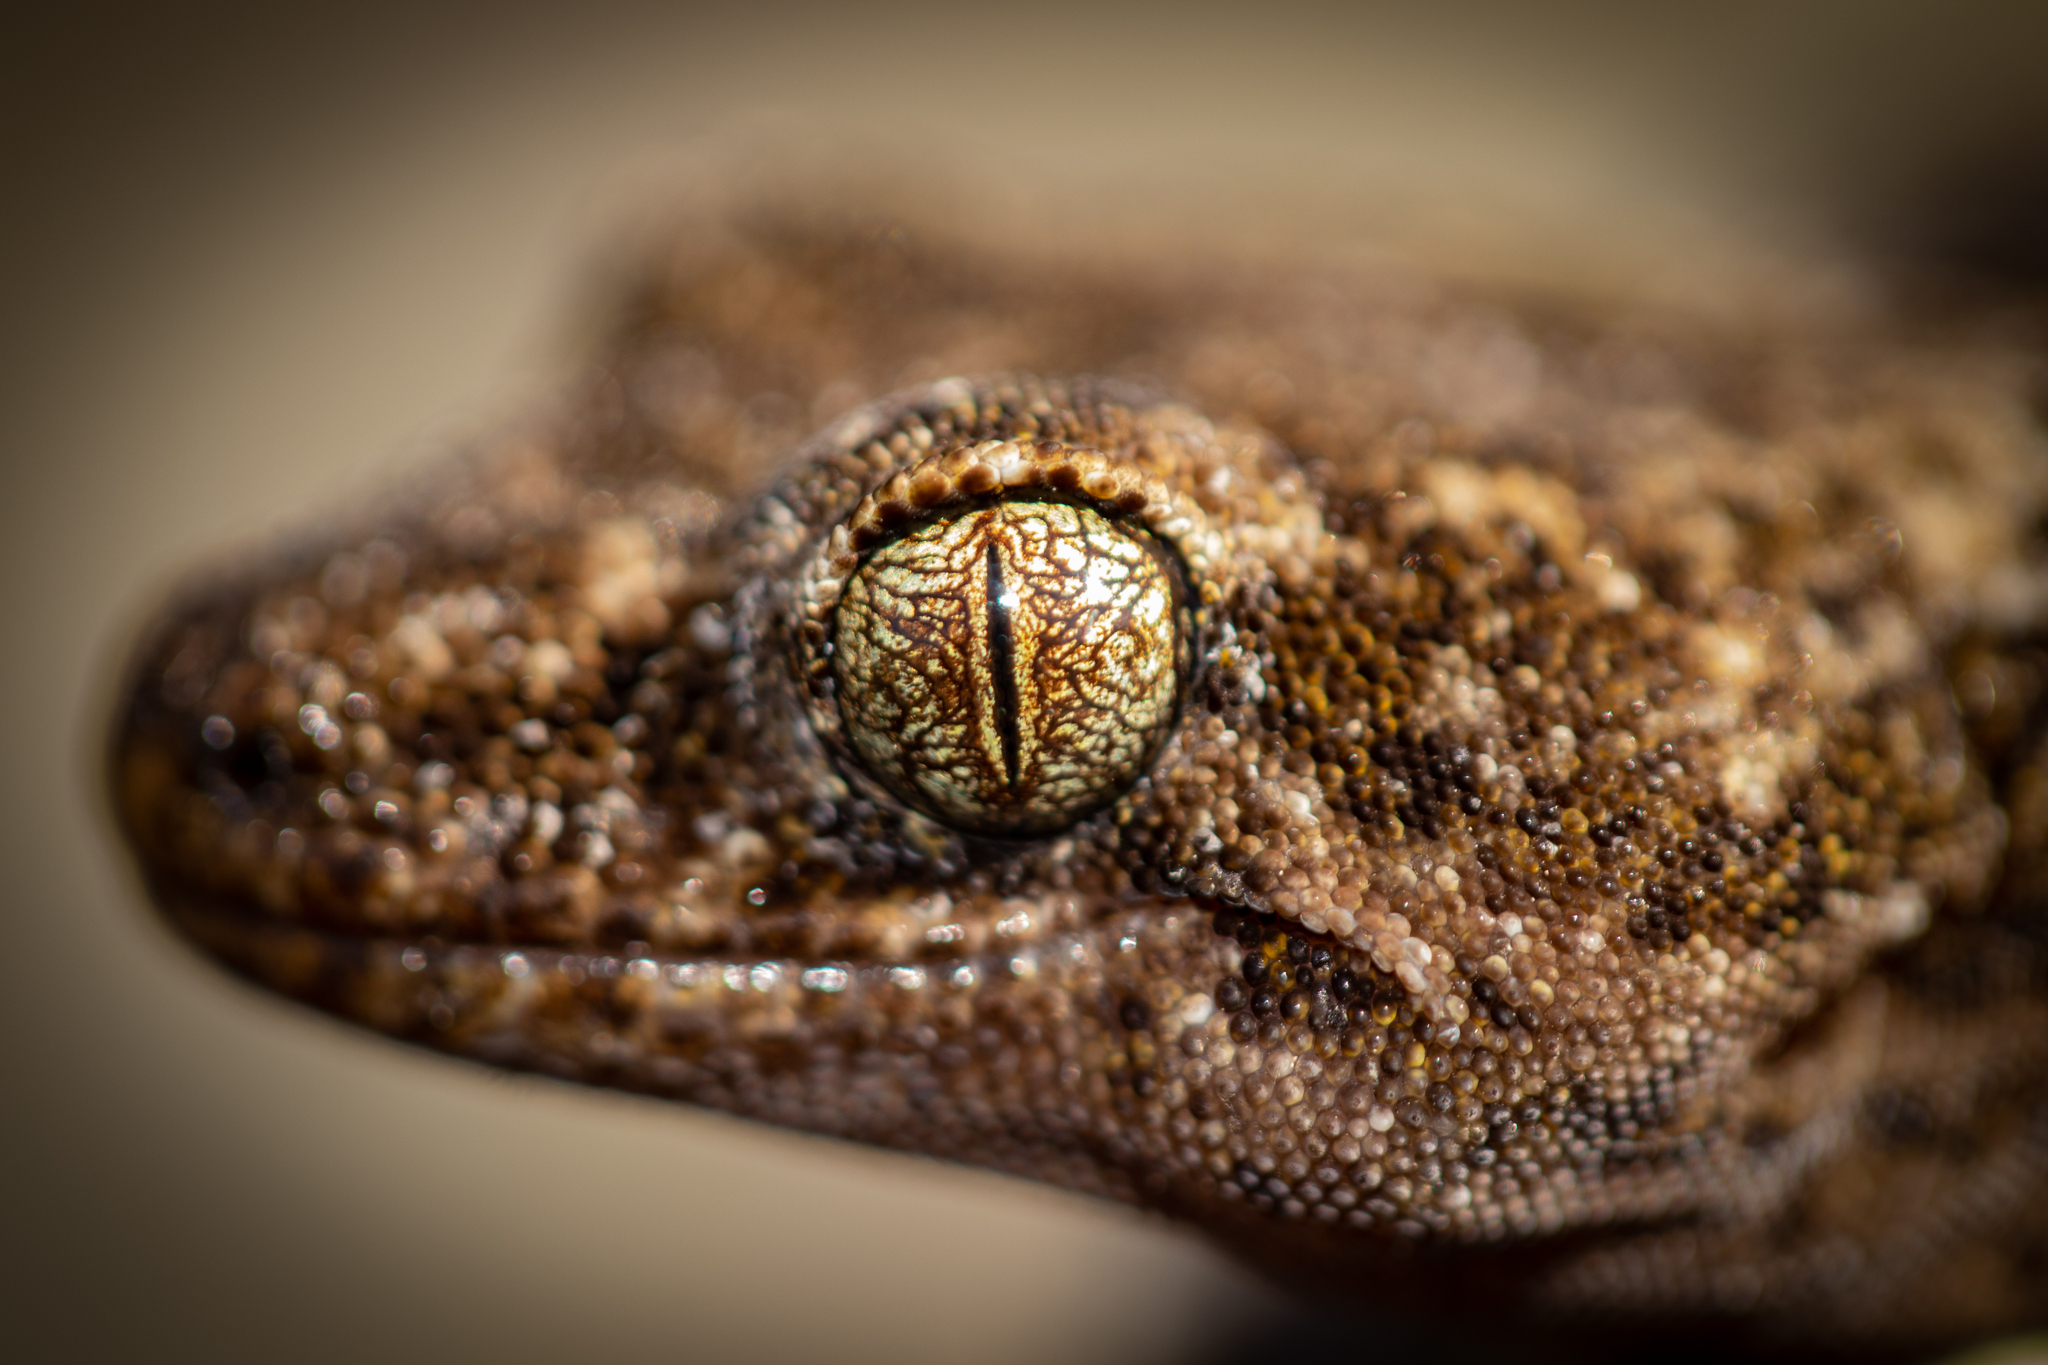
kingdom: Animalia
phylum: Chordata
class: Squamata
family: Diplodactylidae
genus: Woodworthia
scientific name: Woodworthia
